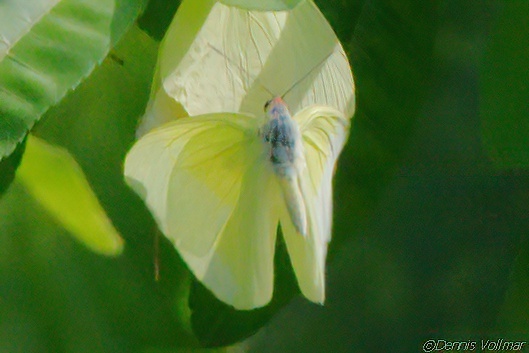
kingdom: Animalia
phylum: Arthropoda
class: Insecta
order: Lepidoptera
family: Pieridae
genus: Aphrissa
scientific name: Aphrissa statira
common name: Statira sulphur
